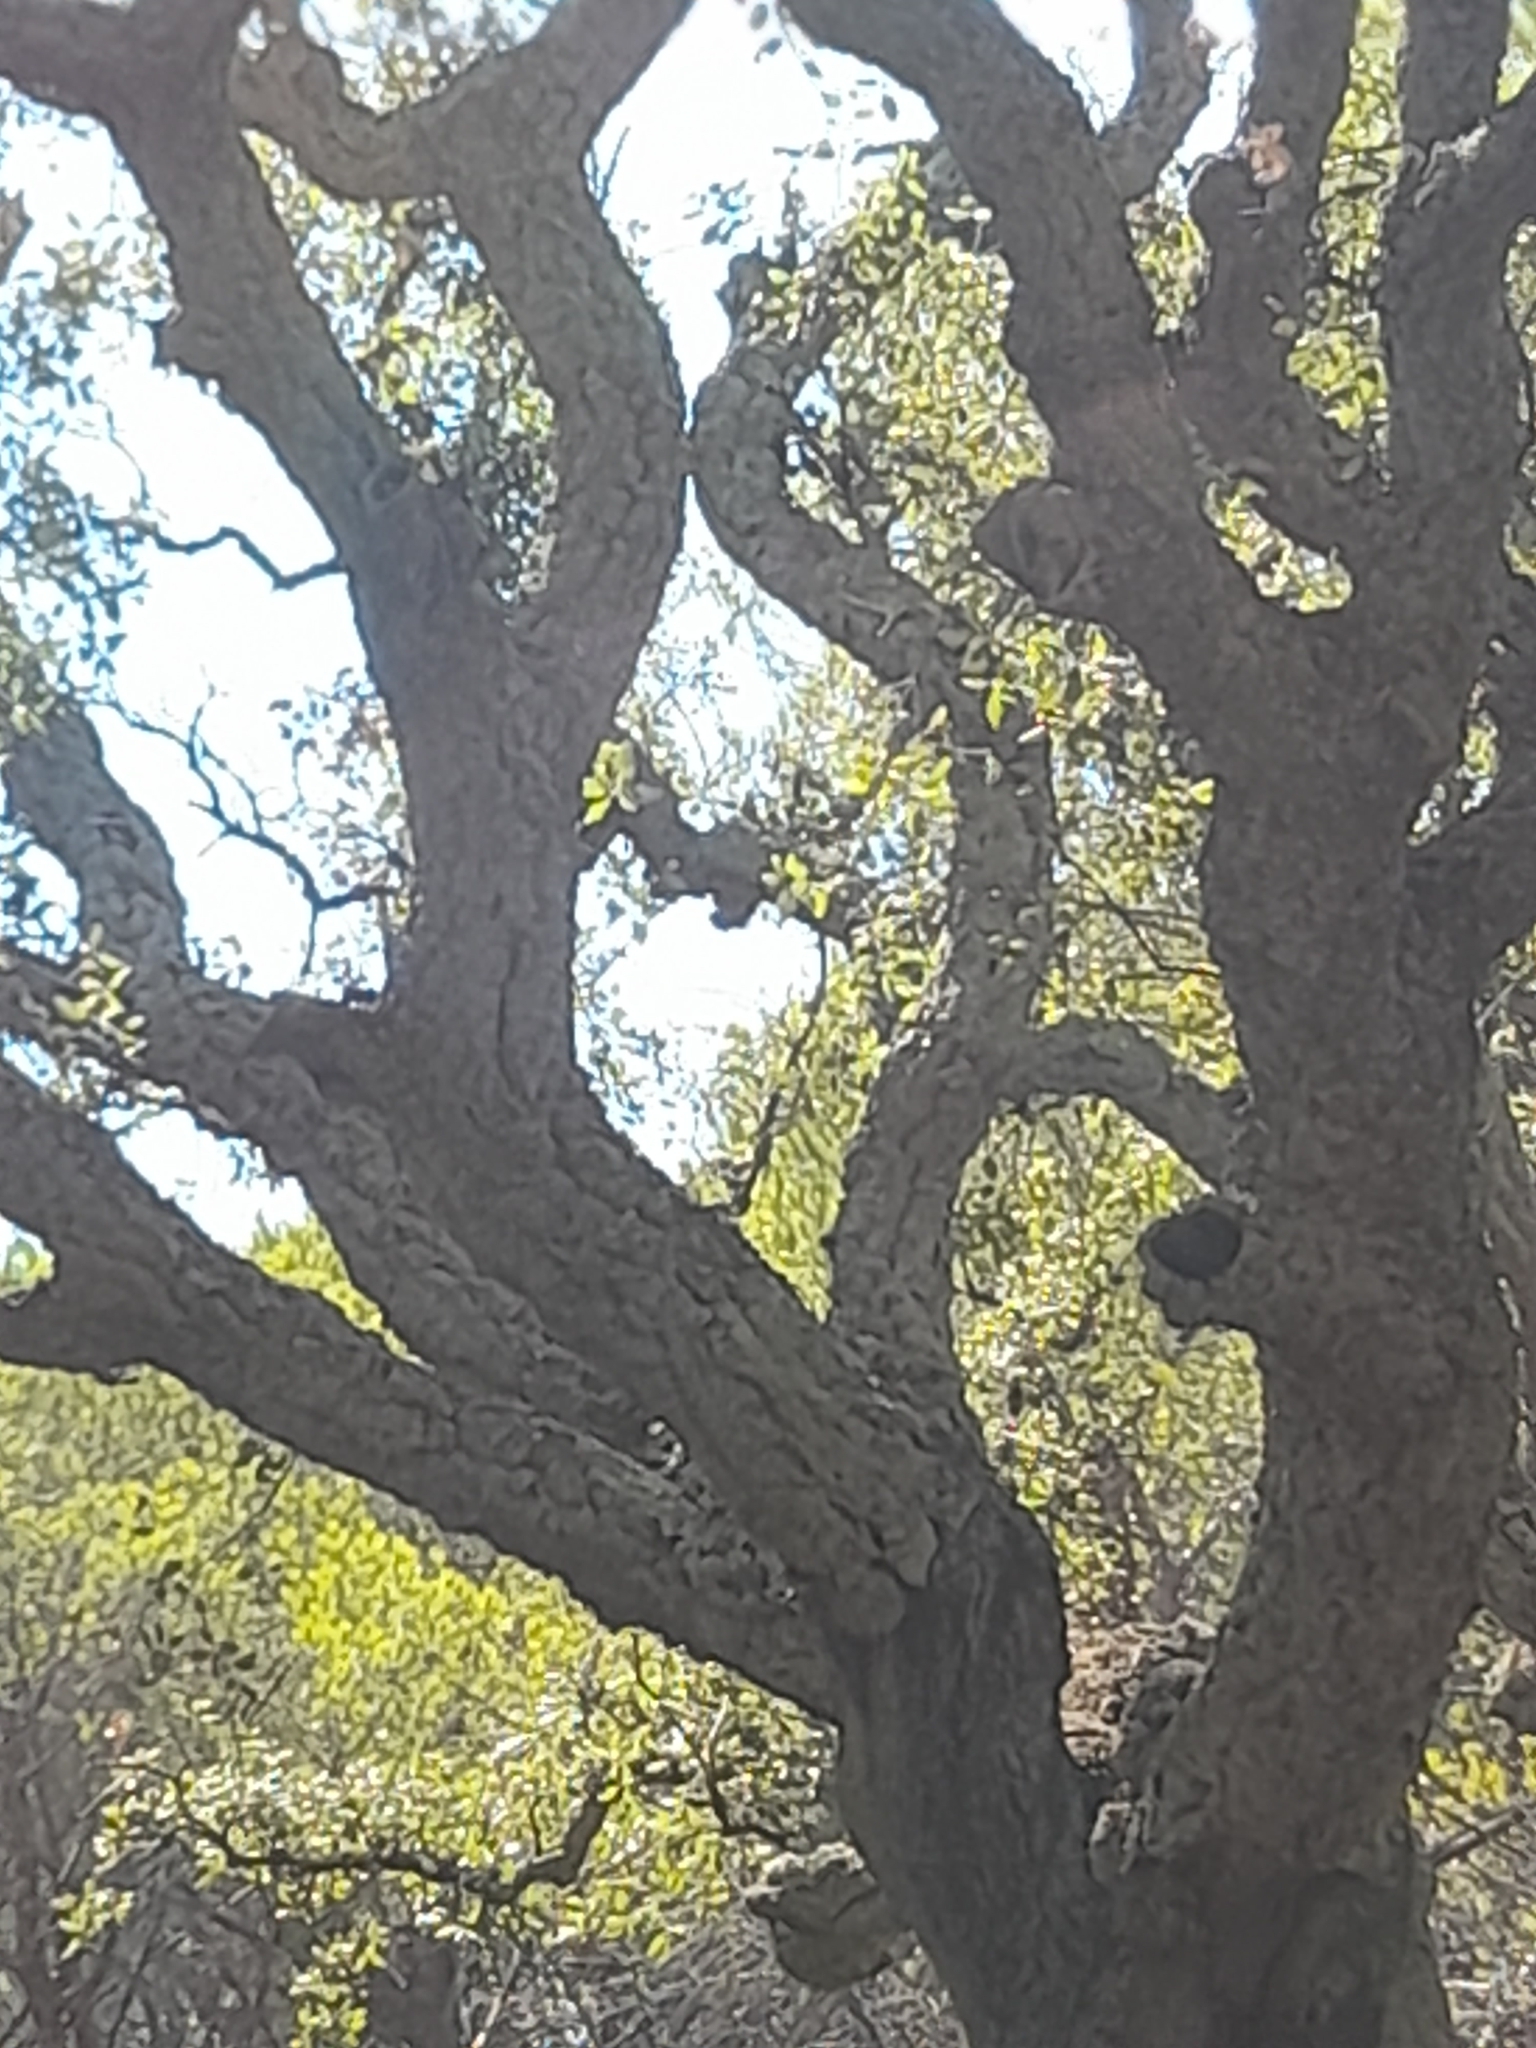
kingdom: Plantae
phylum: Tracheophyta
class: Magnoliopsida
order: Fagales
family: Fagaceae
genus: Quercus
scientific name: Quercus suber
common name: Cork oak
